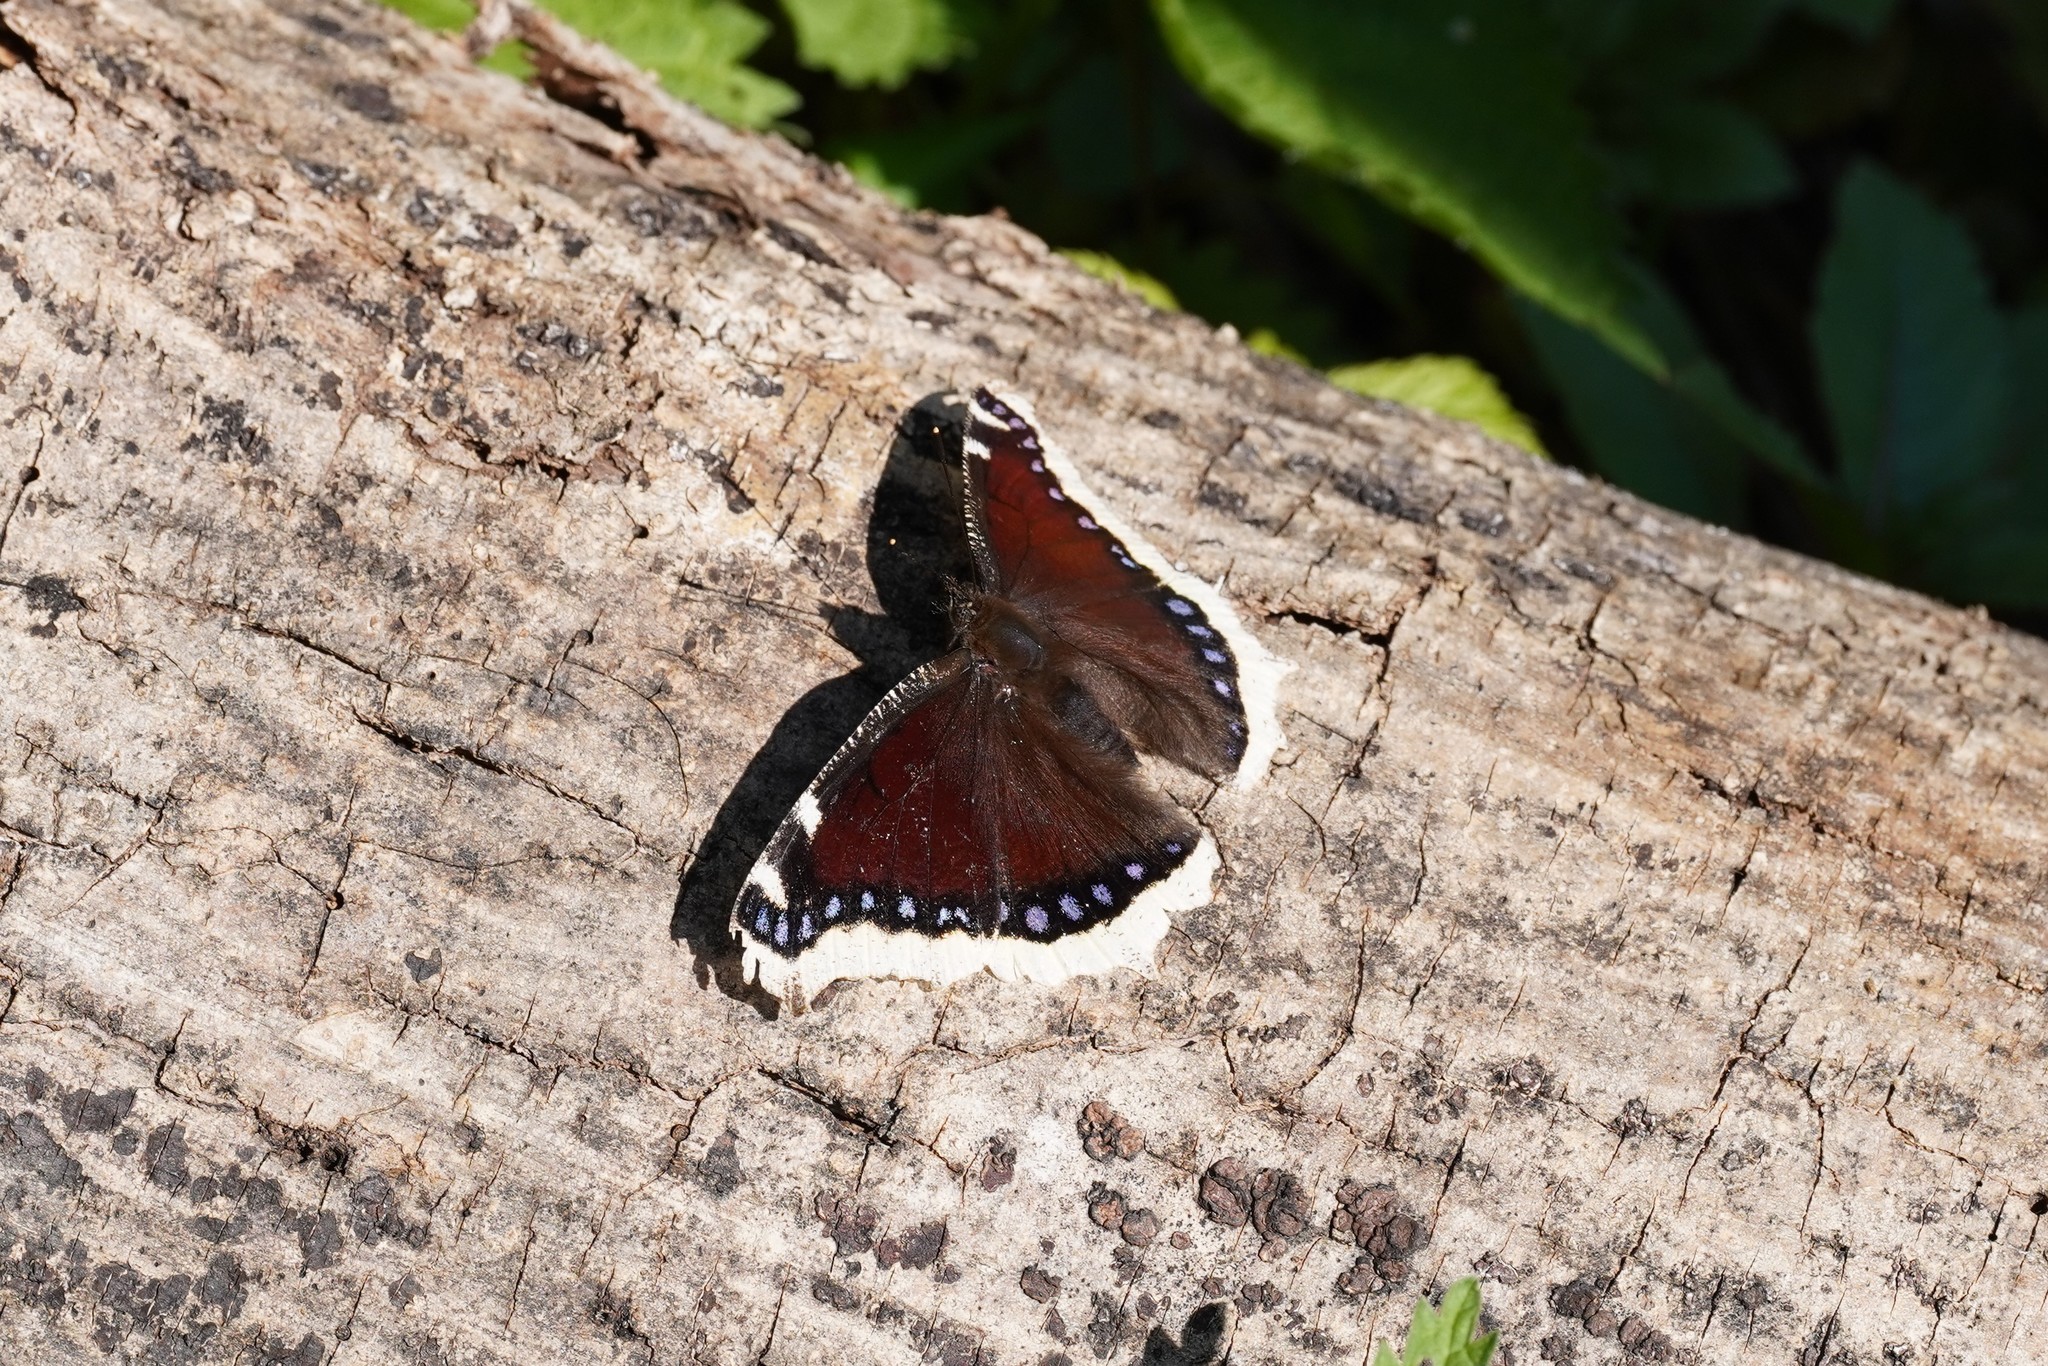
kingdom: Animalia
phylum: Arthropoda
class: Insecta
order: Lepidoptera
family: Nymphalidae
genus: Nymphalis
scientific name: Nymphalis antiopa
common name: Camberwell beauty
